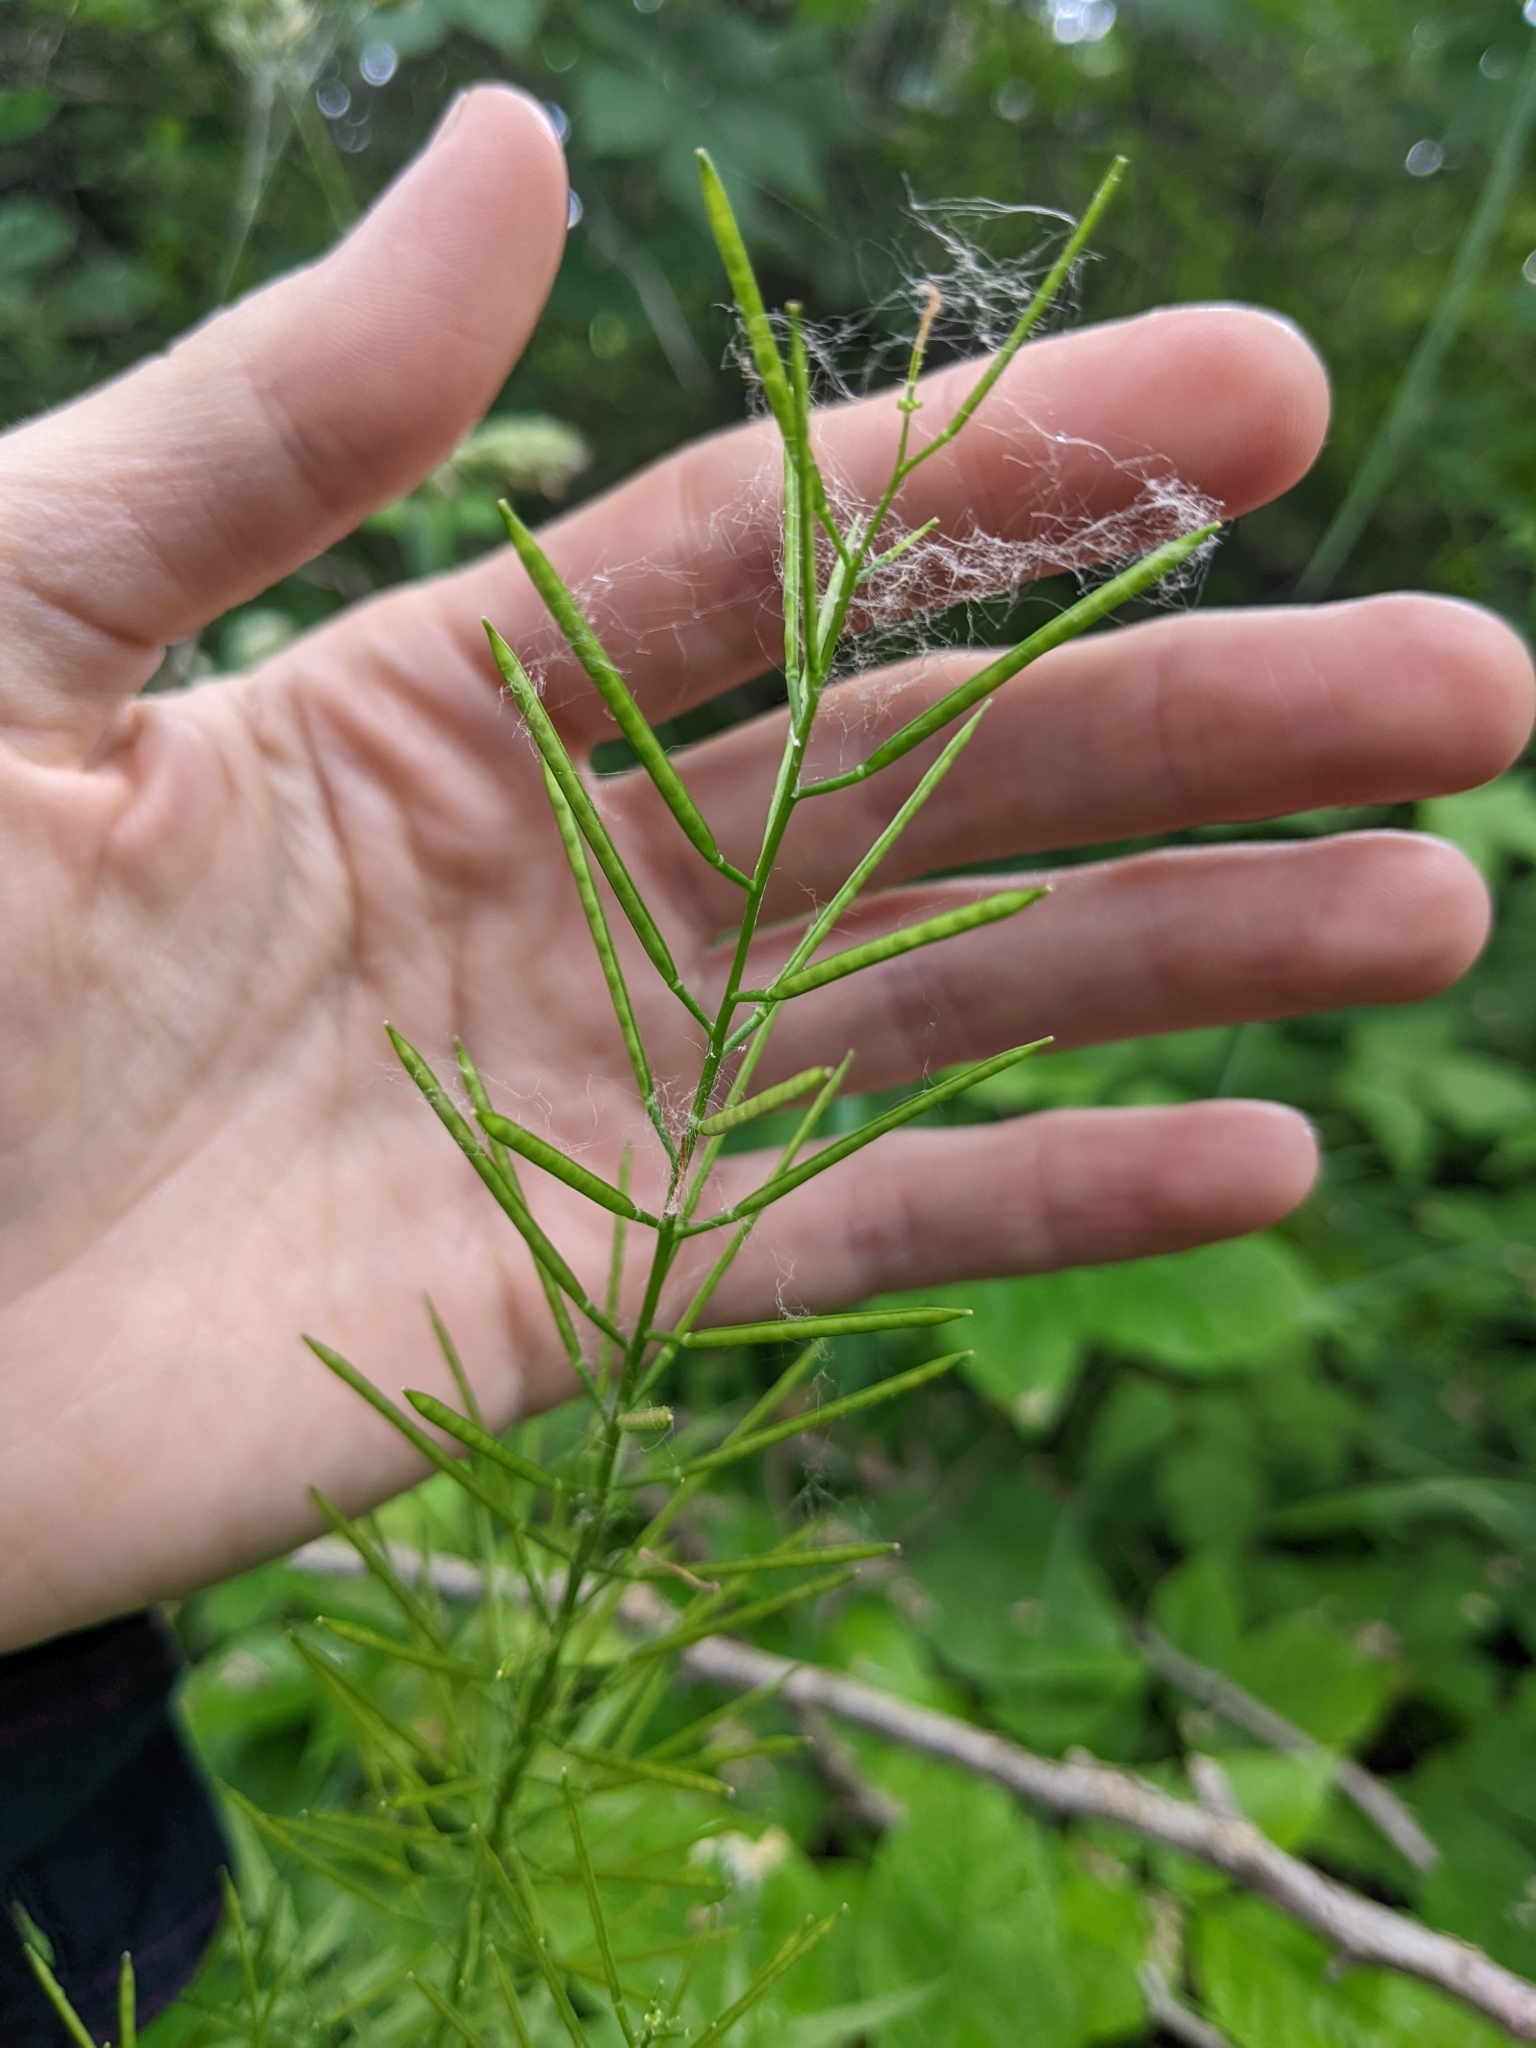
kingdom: Plantae
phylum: Tracheophyta
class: Magnoliopsida
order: Brassicales
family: Brassicaceae
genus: Cardamine
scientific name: Cardamine impatiens
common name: Narrow-leaved bitter-cress
